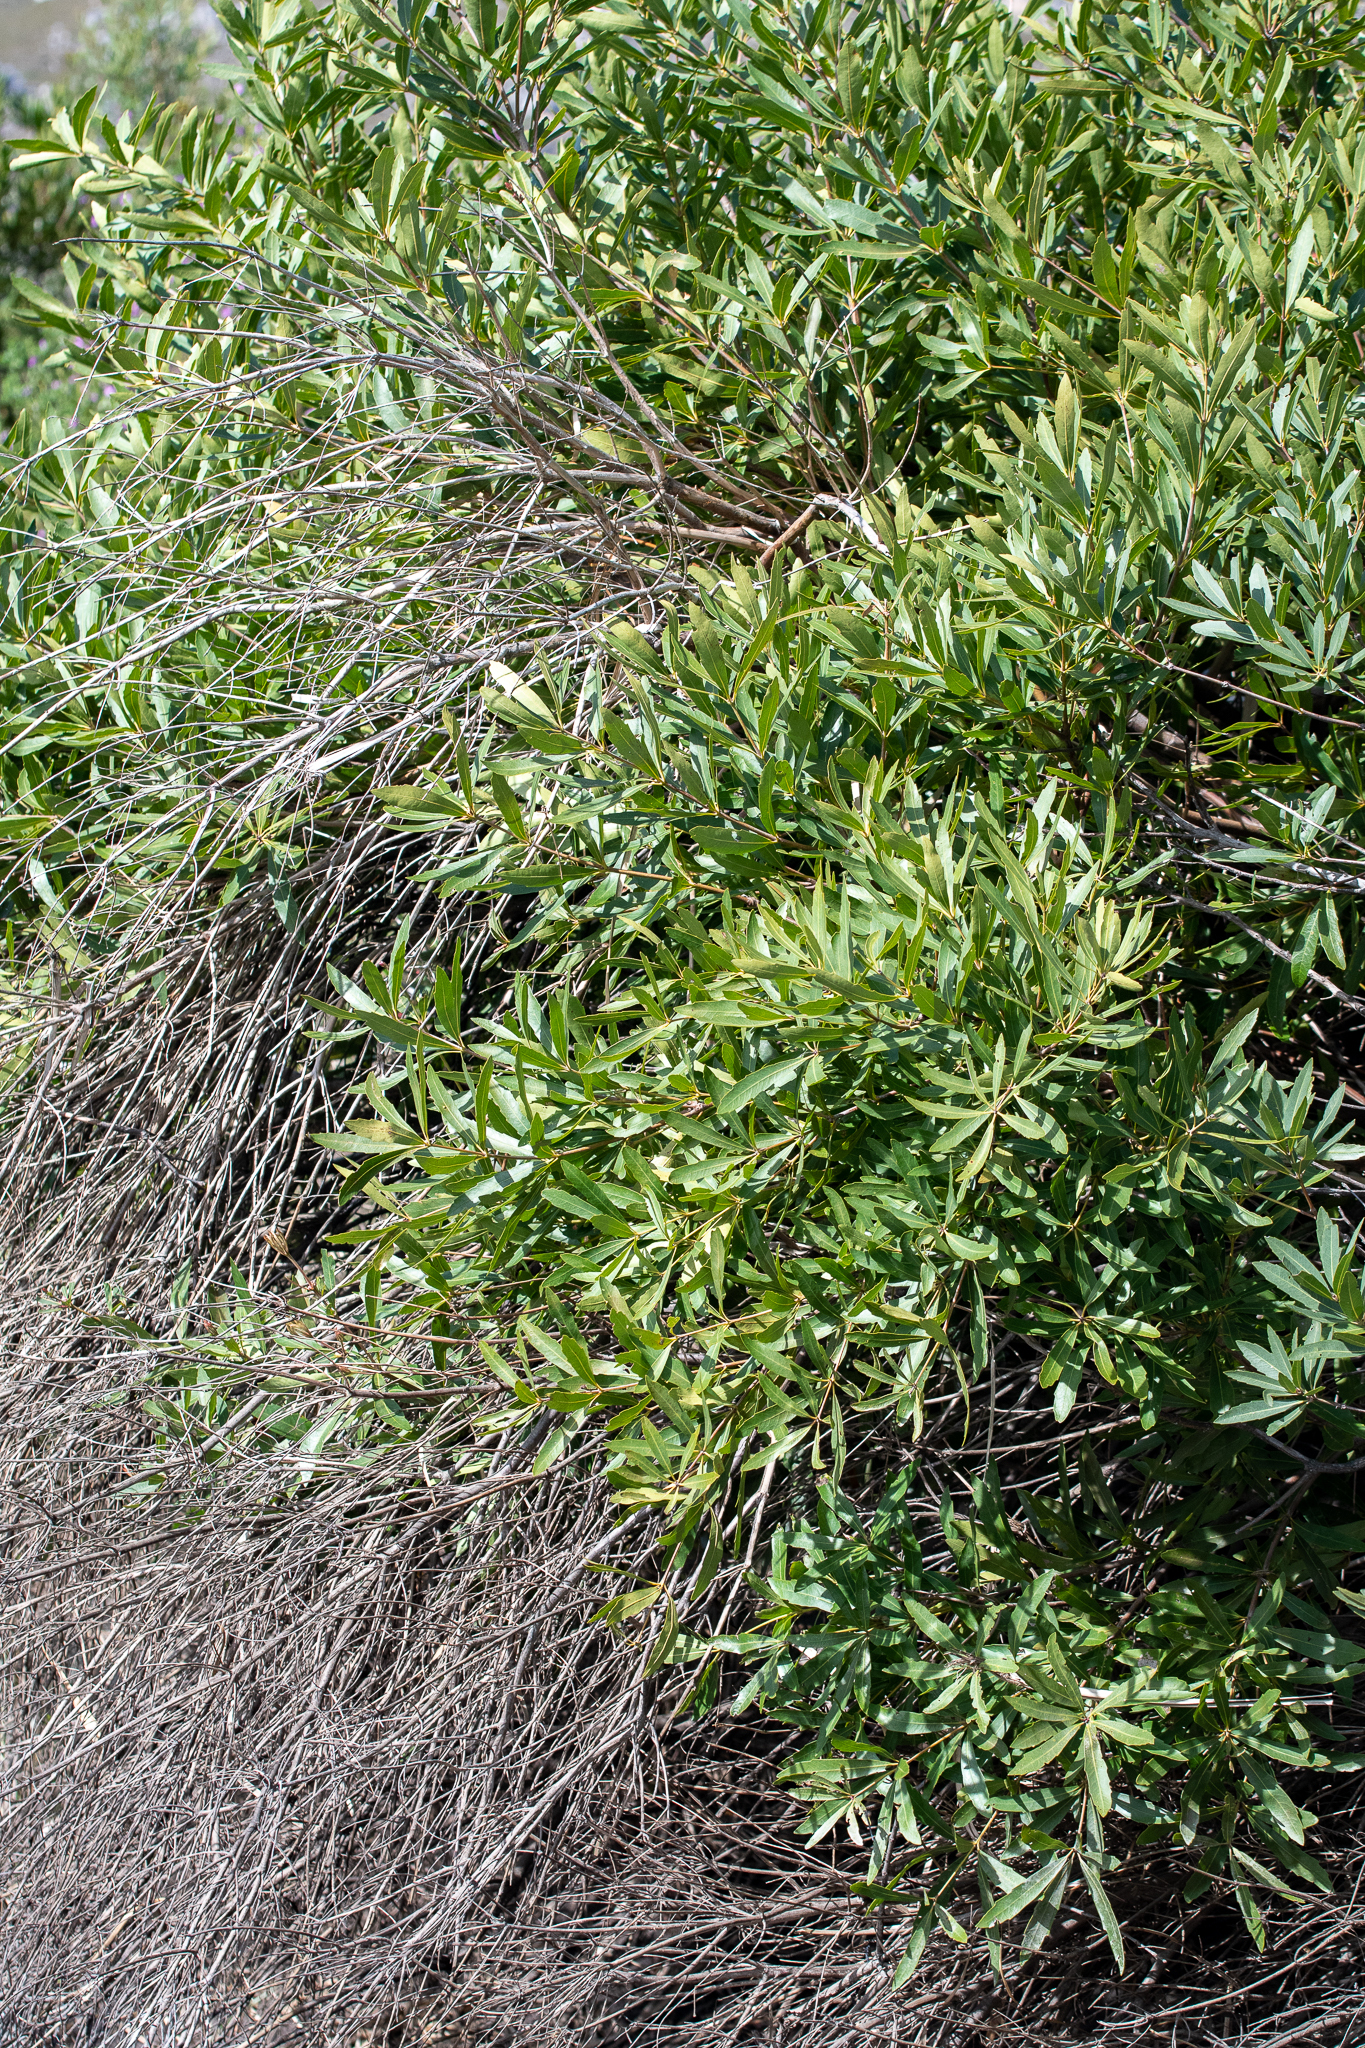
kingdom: Plantae
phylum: Tracheophyta
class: Magnoliopsida
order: Proteales
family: Proteaceae
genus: Brabejum
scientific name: Brabejum stellatifolium
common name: Wild almond
